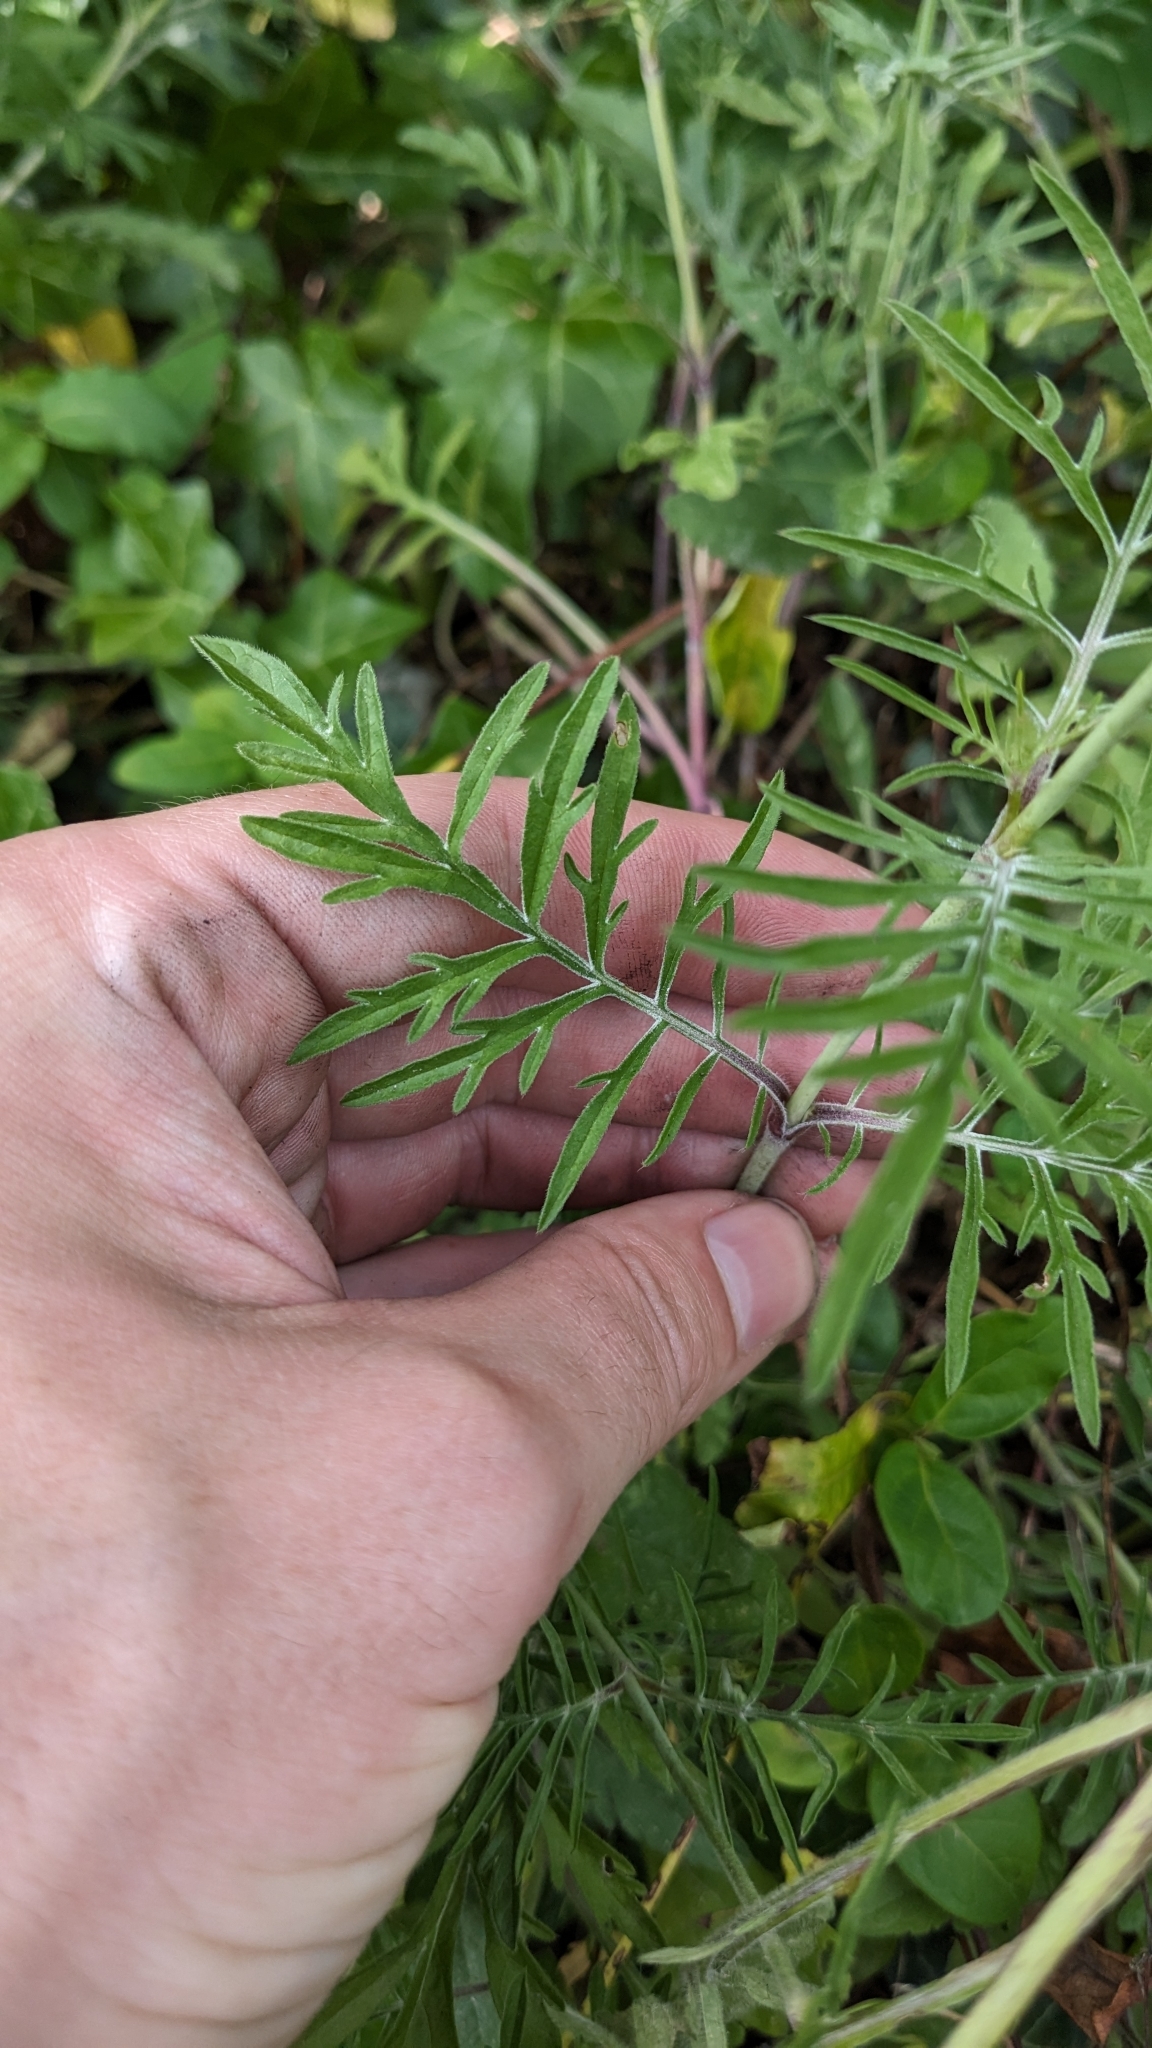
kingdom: Plantae
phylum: Tracheophyta
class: Magnoliopsida
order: Dipsacales
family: Caprifoliaceae
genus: Scabiosa
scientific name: Scabiosa columbaria
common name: Small scabious
